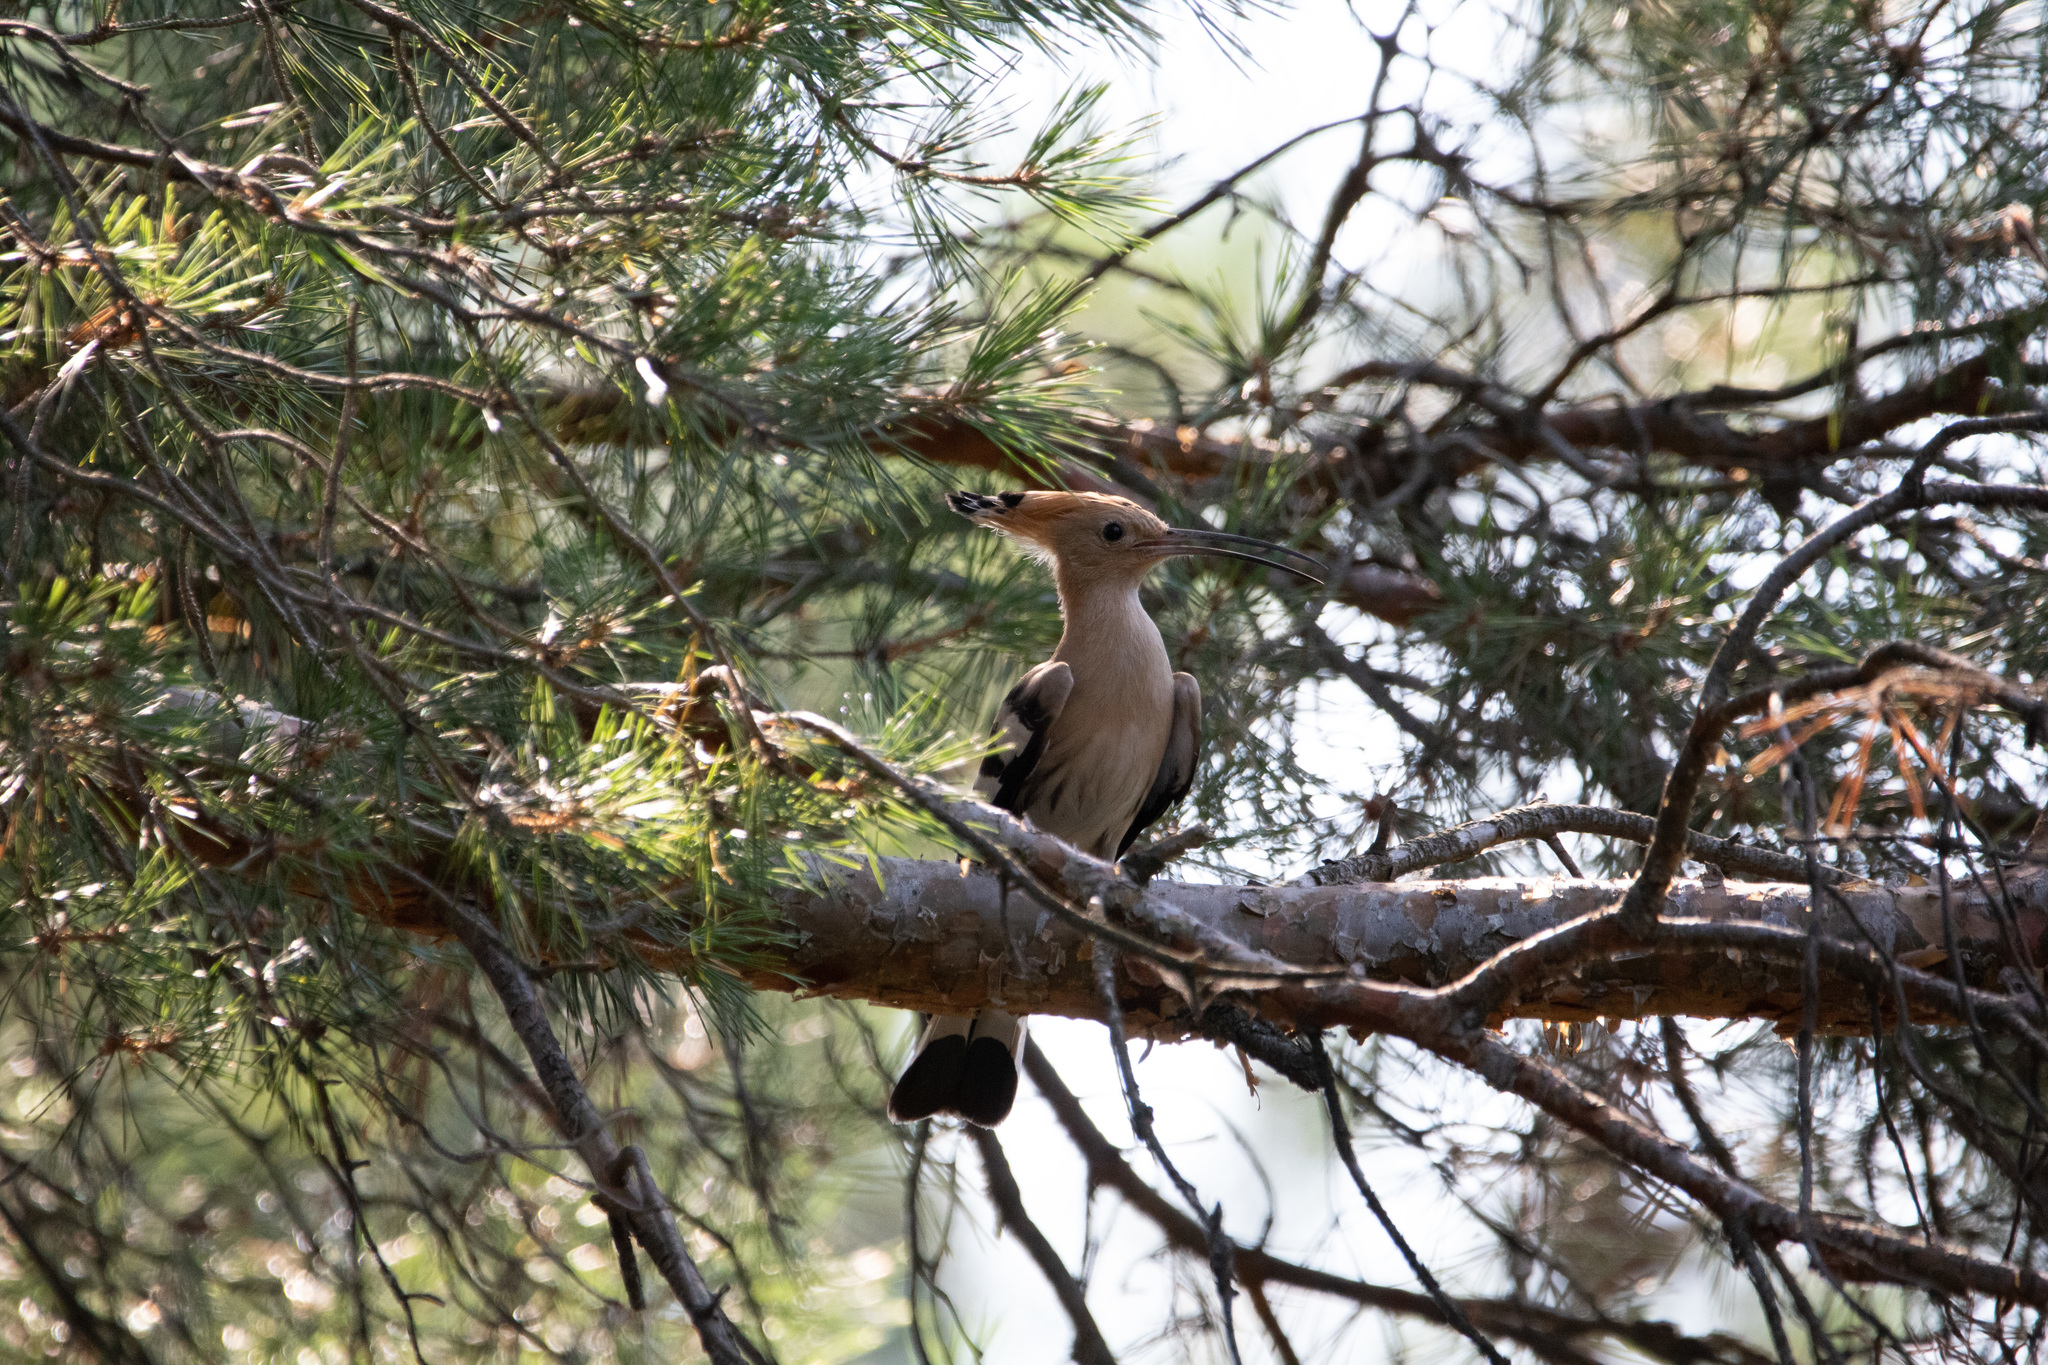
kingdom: Animalia
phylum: Chordata
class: Aves
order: Bucerotiformes
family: Upupidae
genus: Upupa
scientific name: Upupa epops
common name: Eurasian hoopoe
